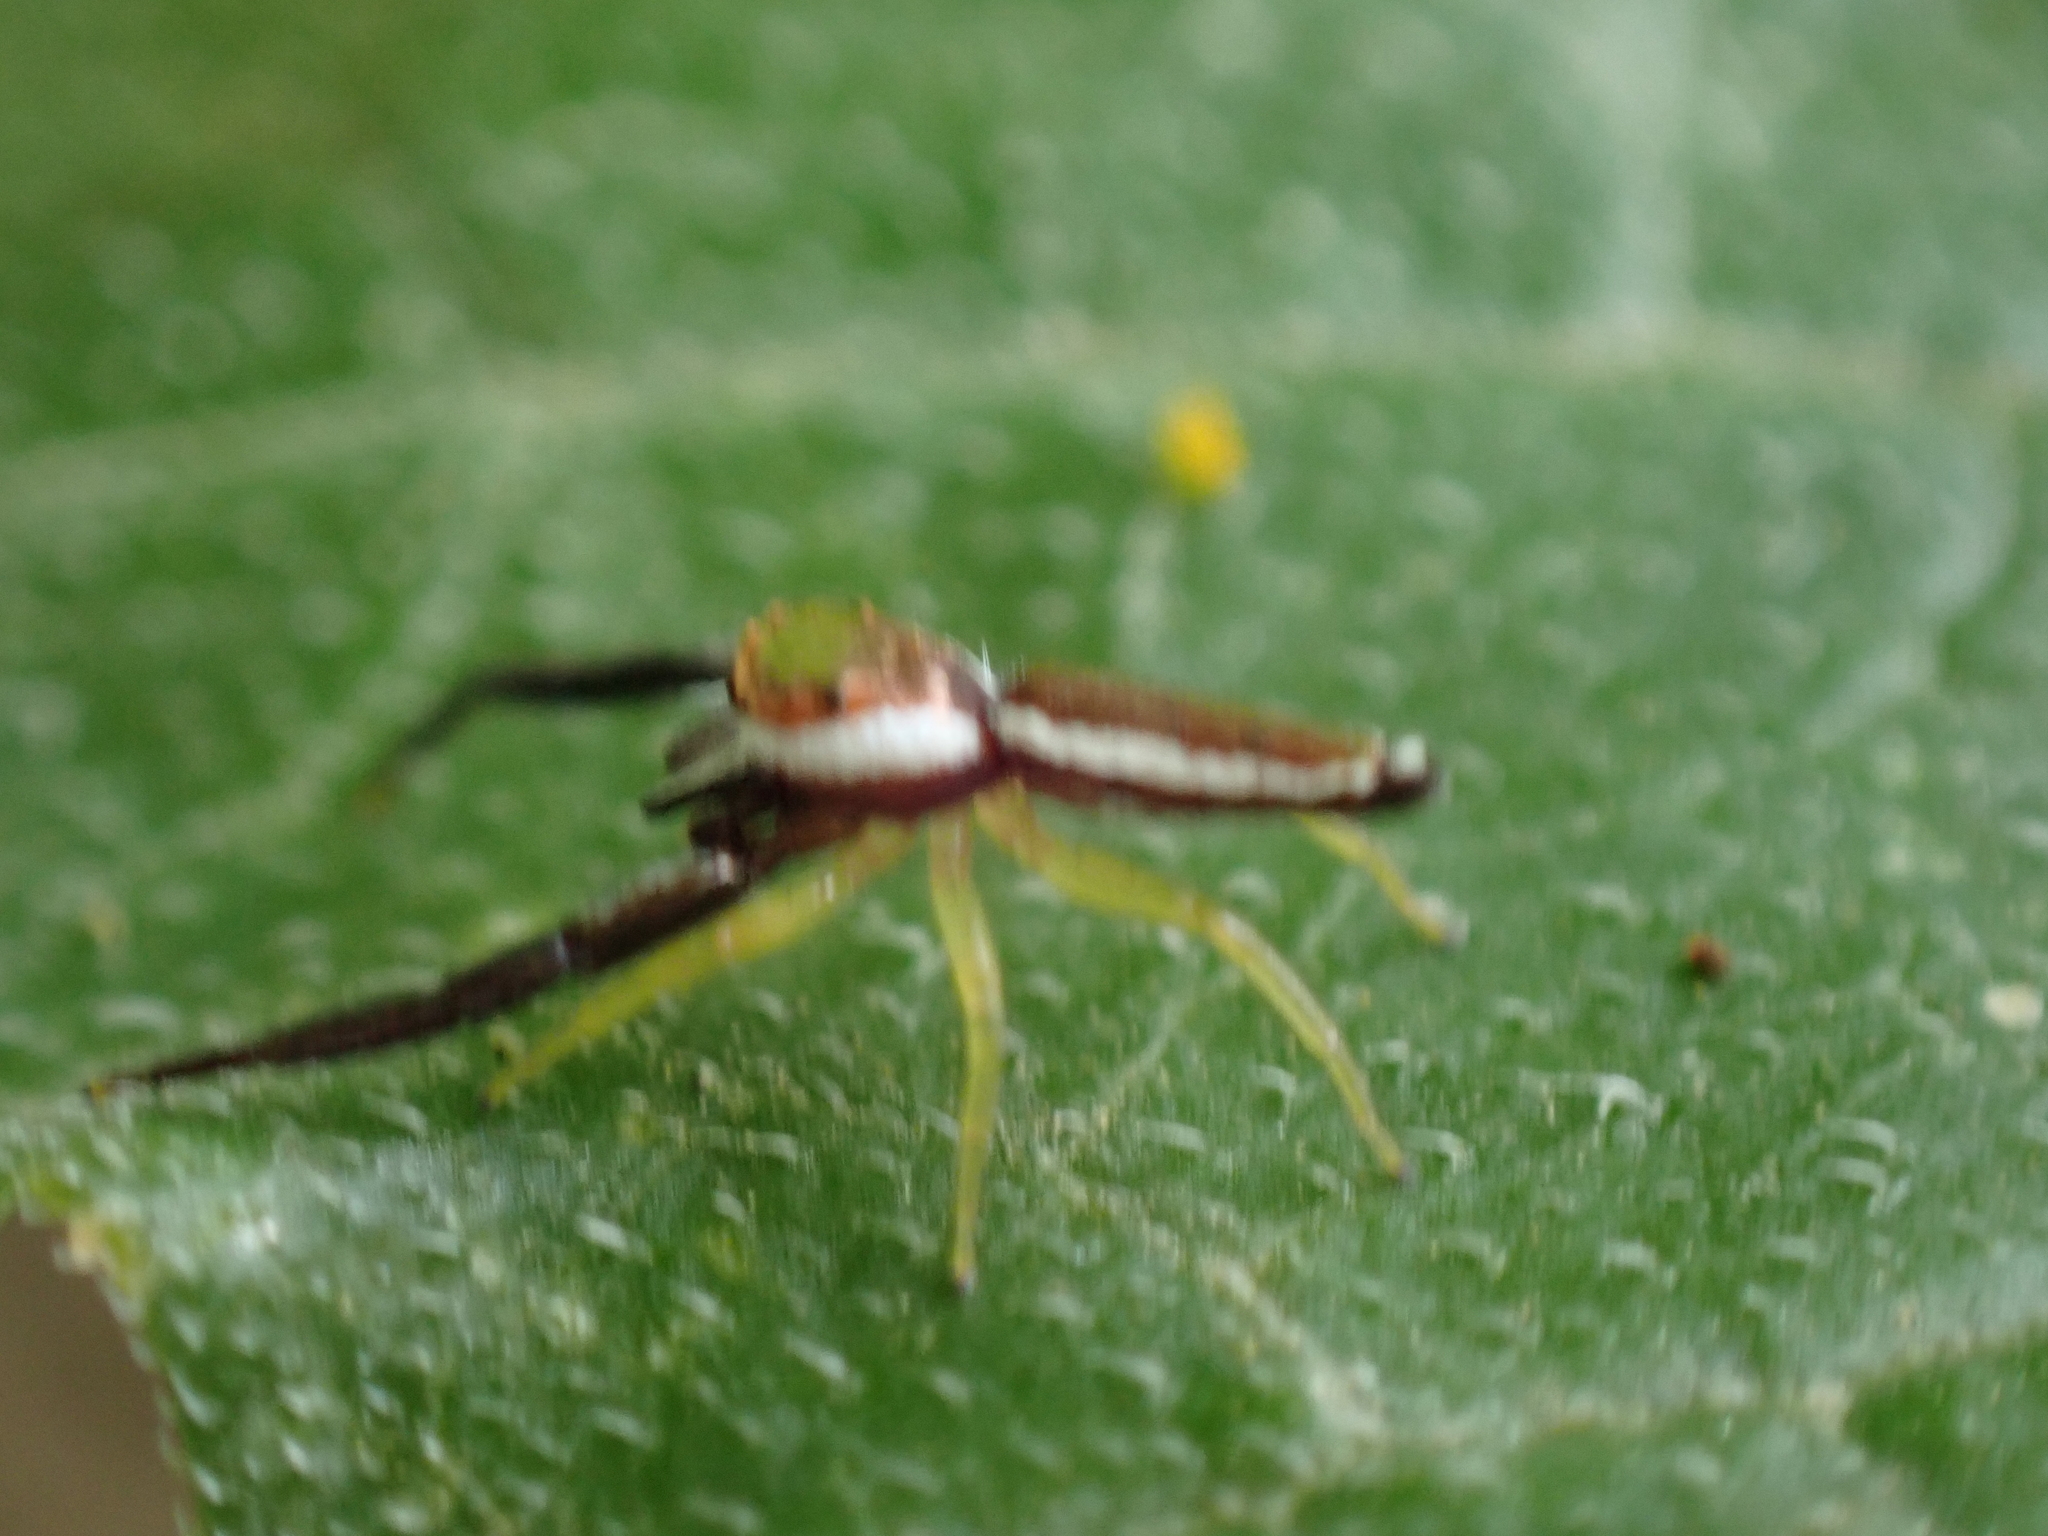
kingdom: Animalia
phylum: Arthropoda
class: Arachnida
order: Araneae
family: Salticidae
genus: Hentzia
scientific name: Hentzia palmarum
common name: Common hentz jumping spider
